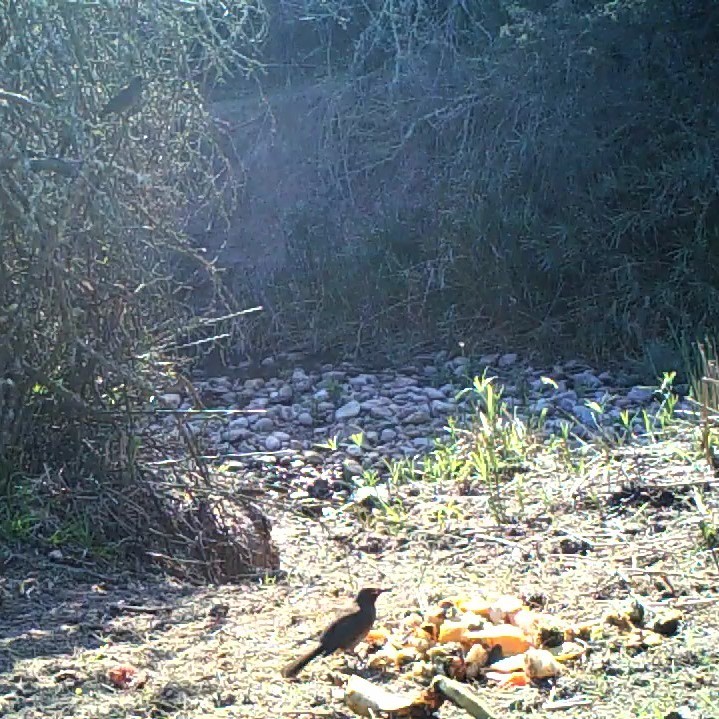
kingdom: Animalia
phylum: Chordata
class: Aves
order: Passeriformes
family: Pycnonotidae
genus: Pycnonotus
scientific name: Pycnonotus capensis
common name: Cape bulbul
